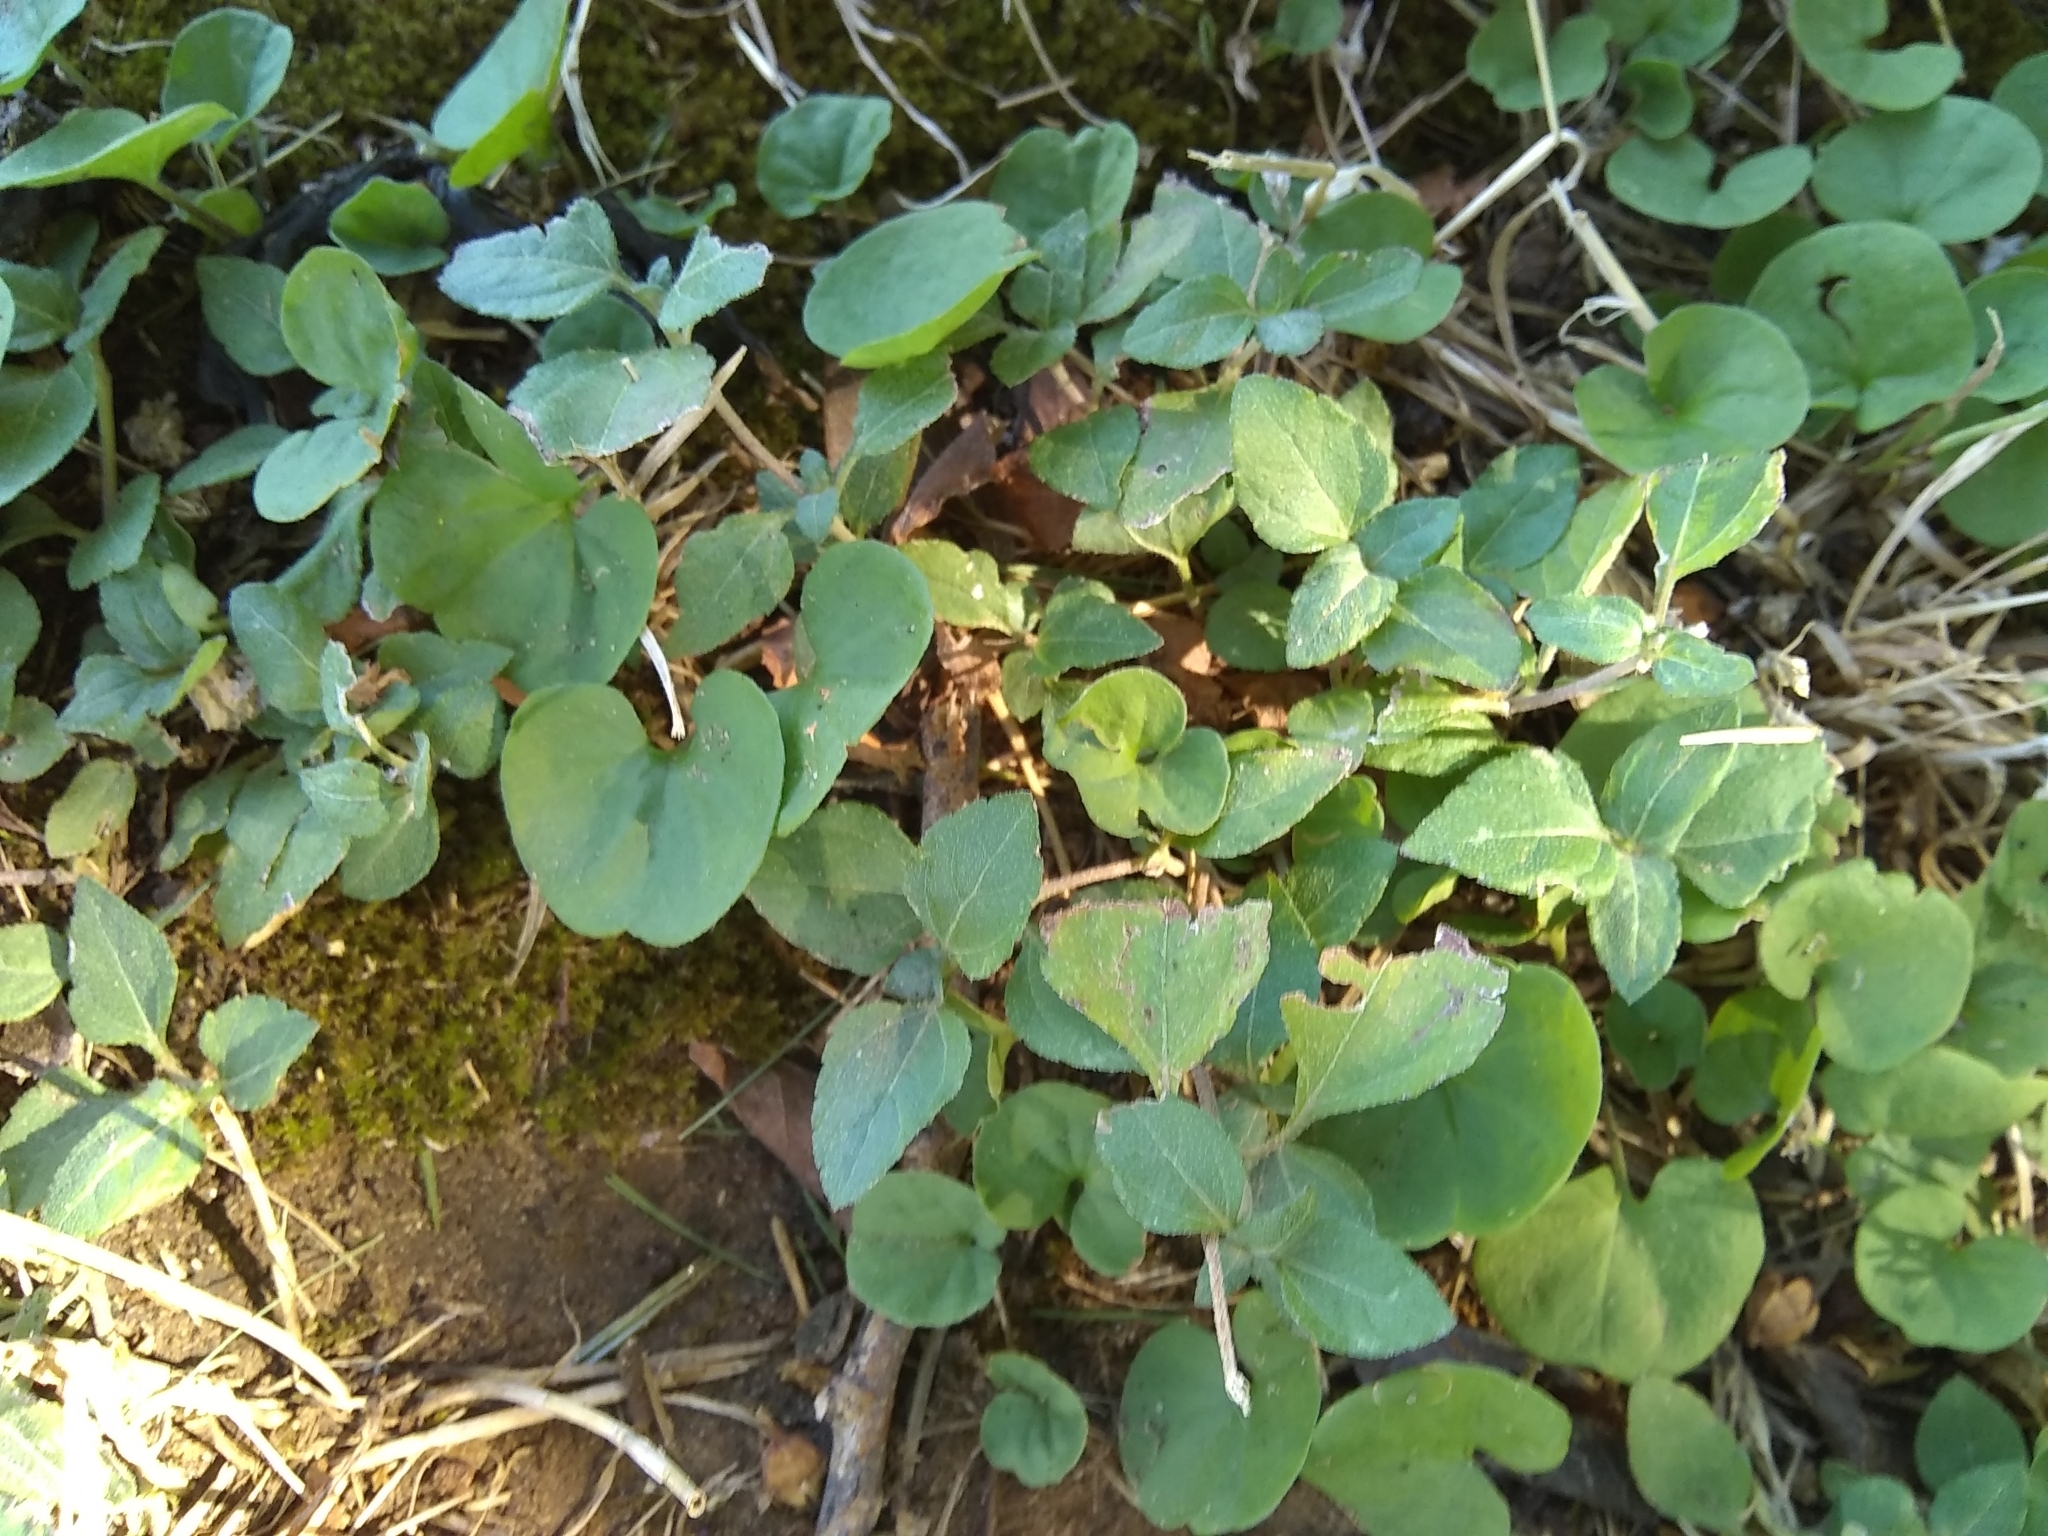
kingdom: Plantae
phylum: Tracheophyta
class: Magnoliopsida
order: Solanales
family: Convolvulaceae
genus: Dichondra
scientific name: Dichondra carolinensis
